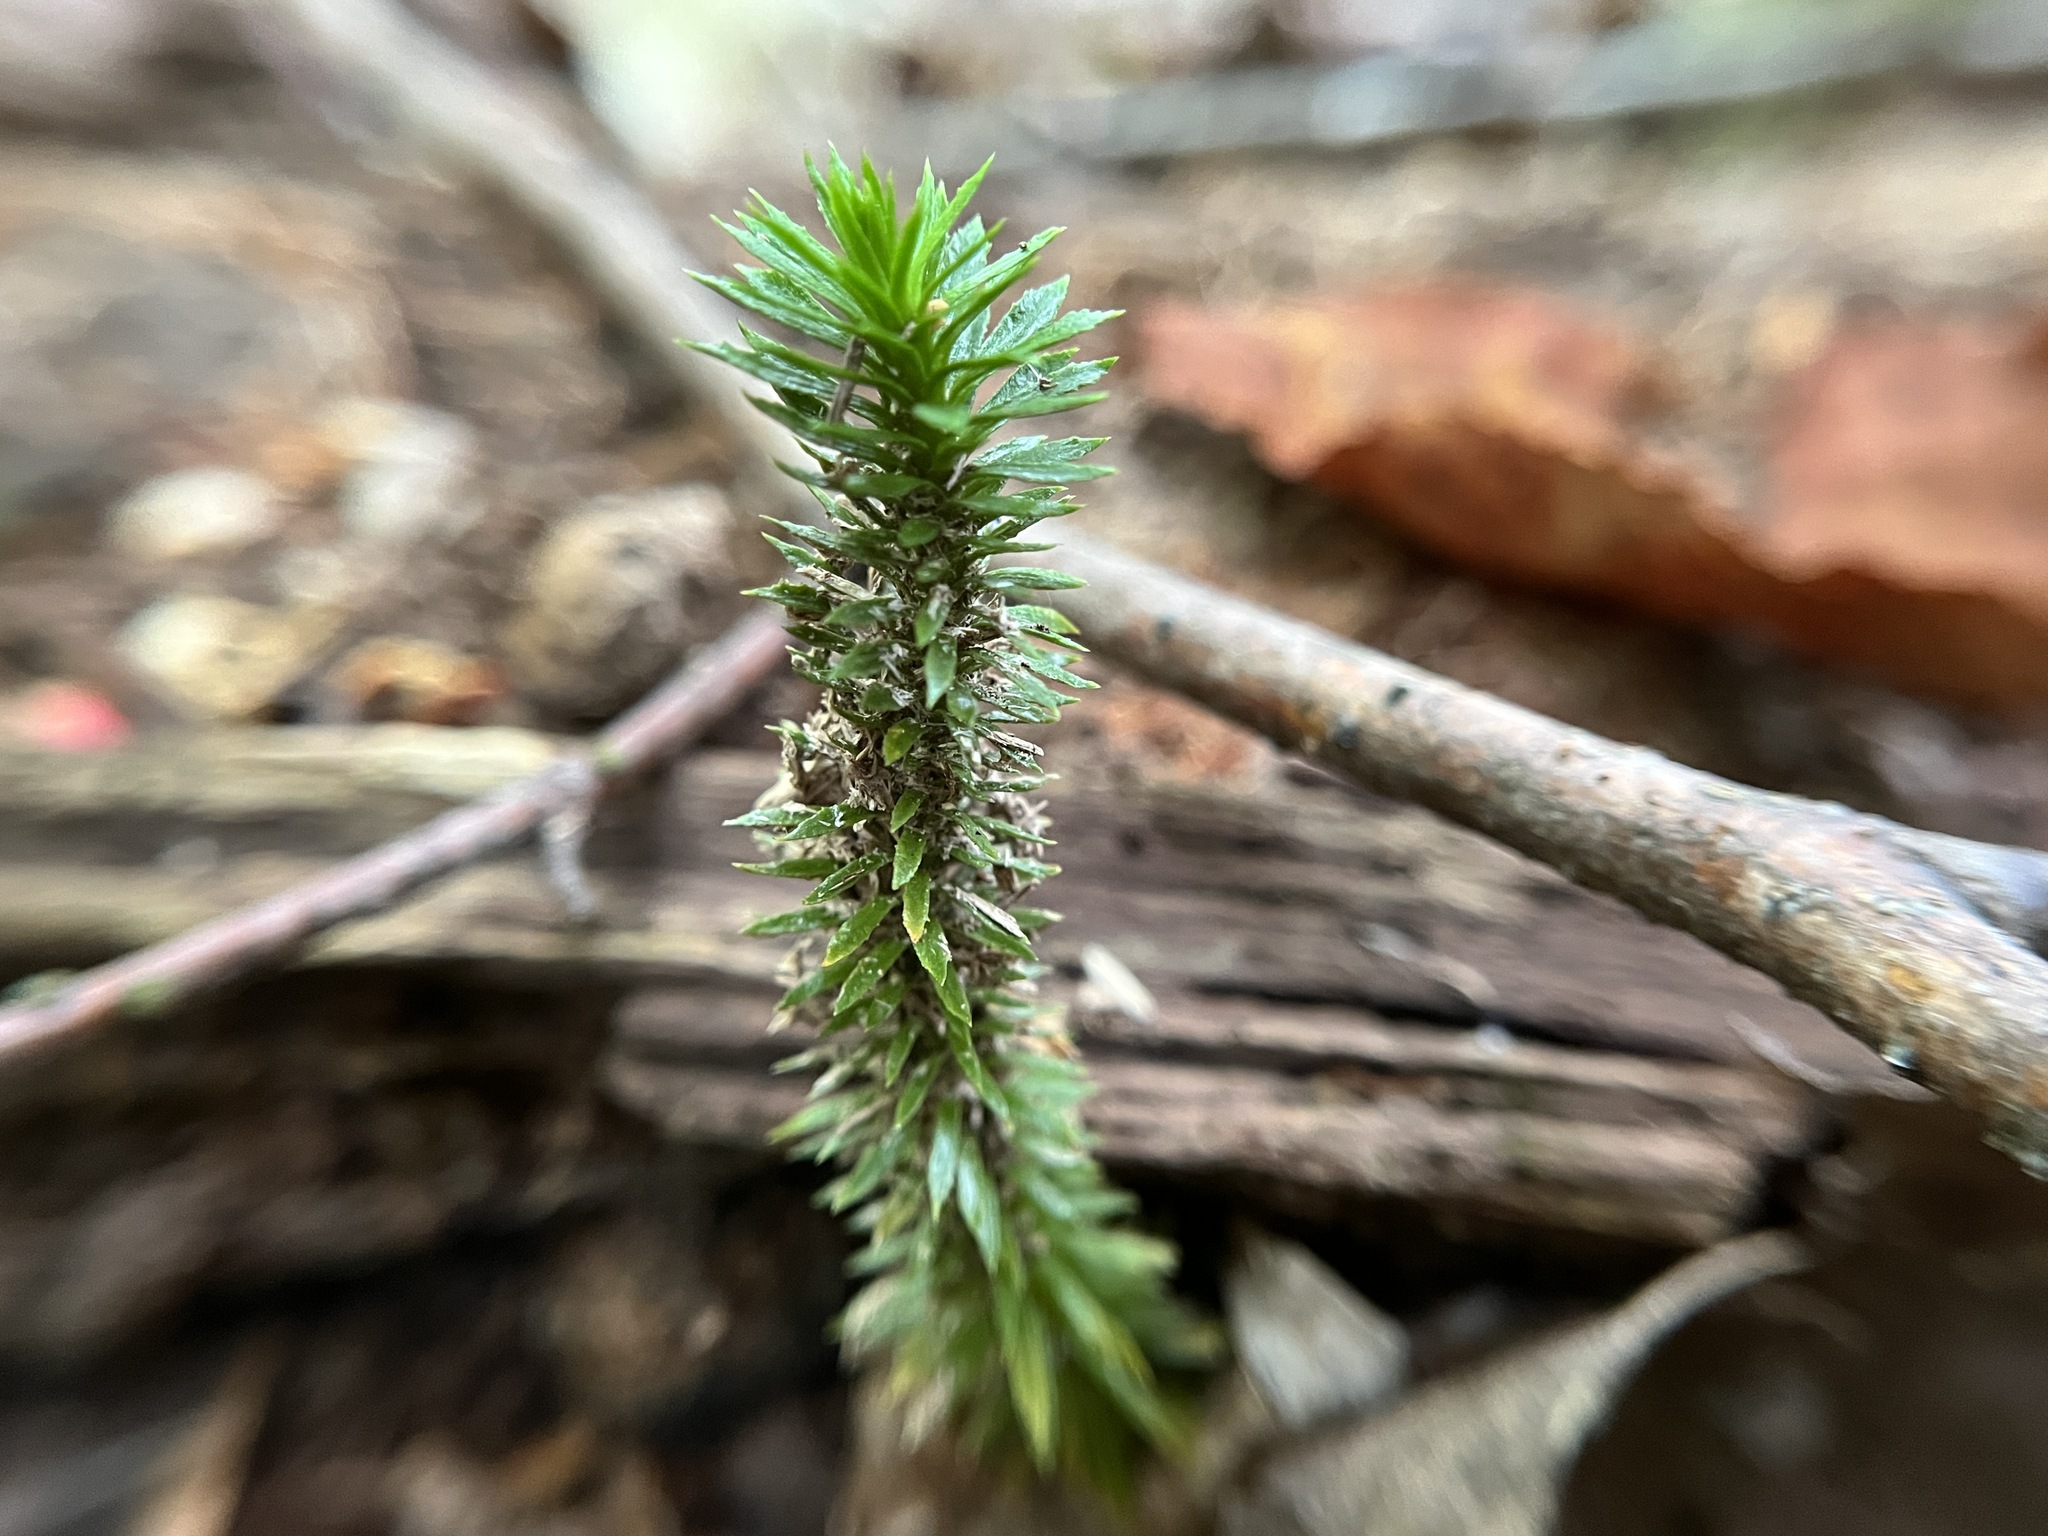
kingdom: Plantae
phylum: Tracheophyta
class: Lycopodiopsida
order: Lycopodiales
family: Lycopodiaceae
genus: Huperzia
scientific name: Huperzia lucidula
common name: Shining clubmoss
